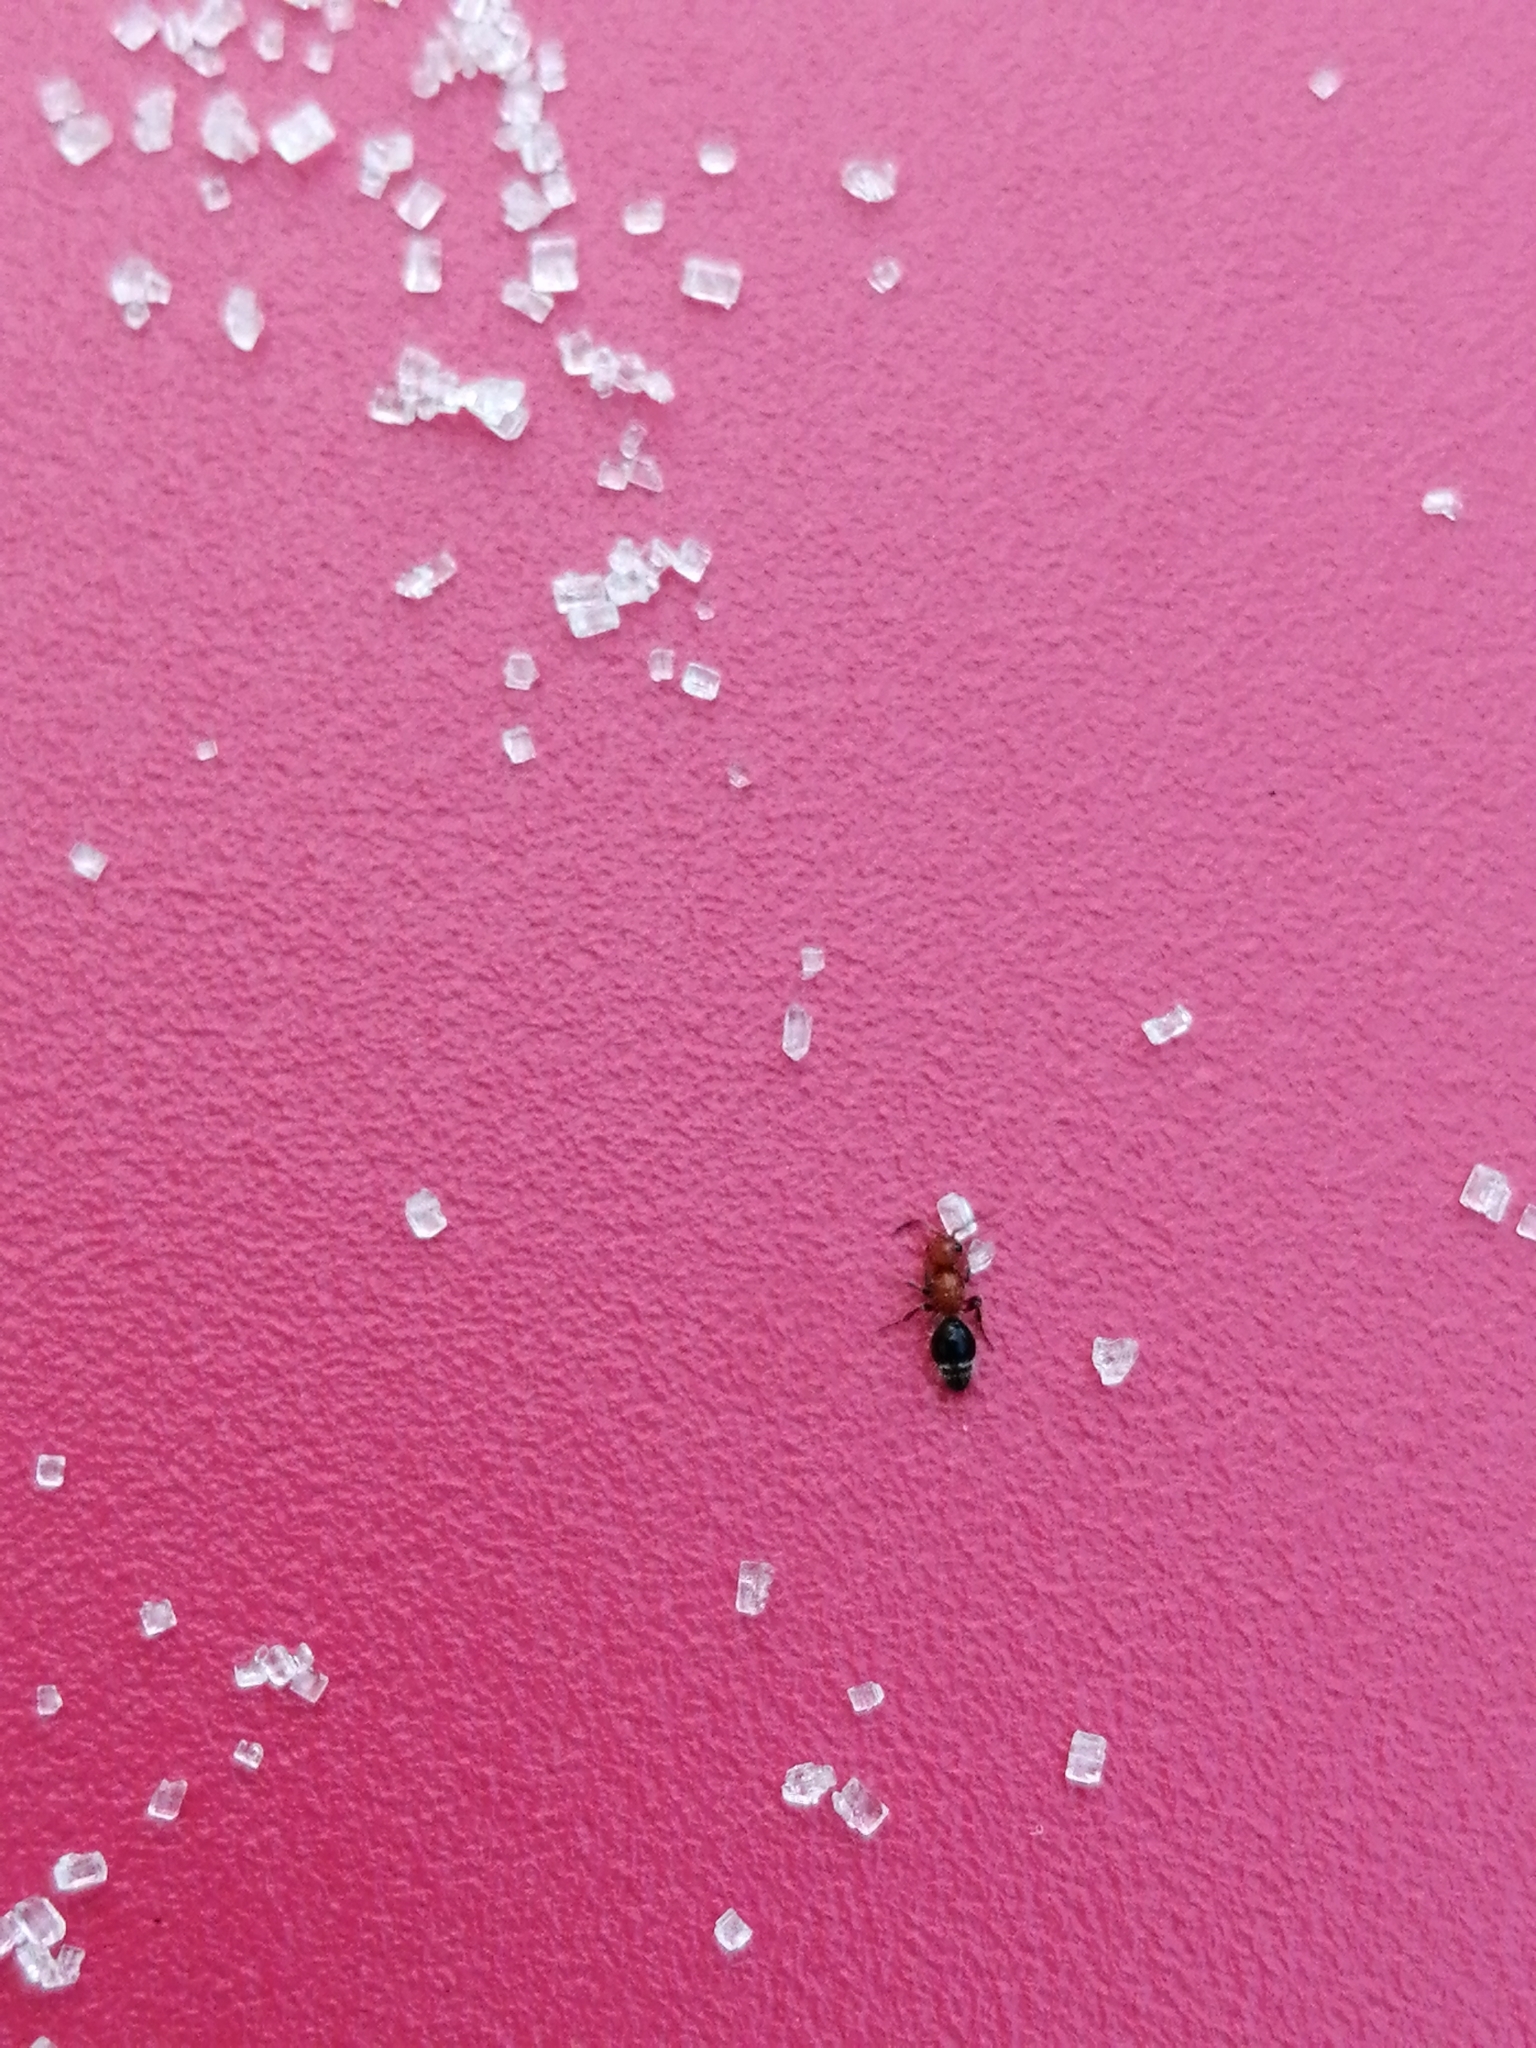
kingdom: Animalia
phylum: Arthropoda
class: Insecta
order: Hymenoptera
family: Mutillidae
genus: Cystomutilla
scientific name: Cystomutilla ruficeps
